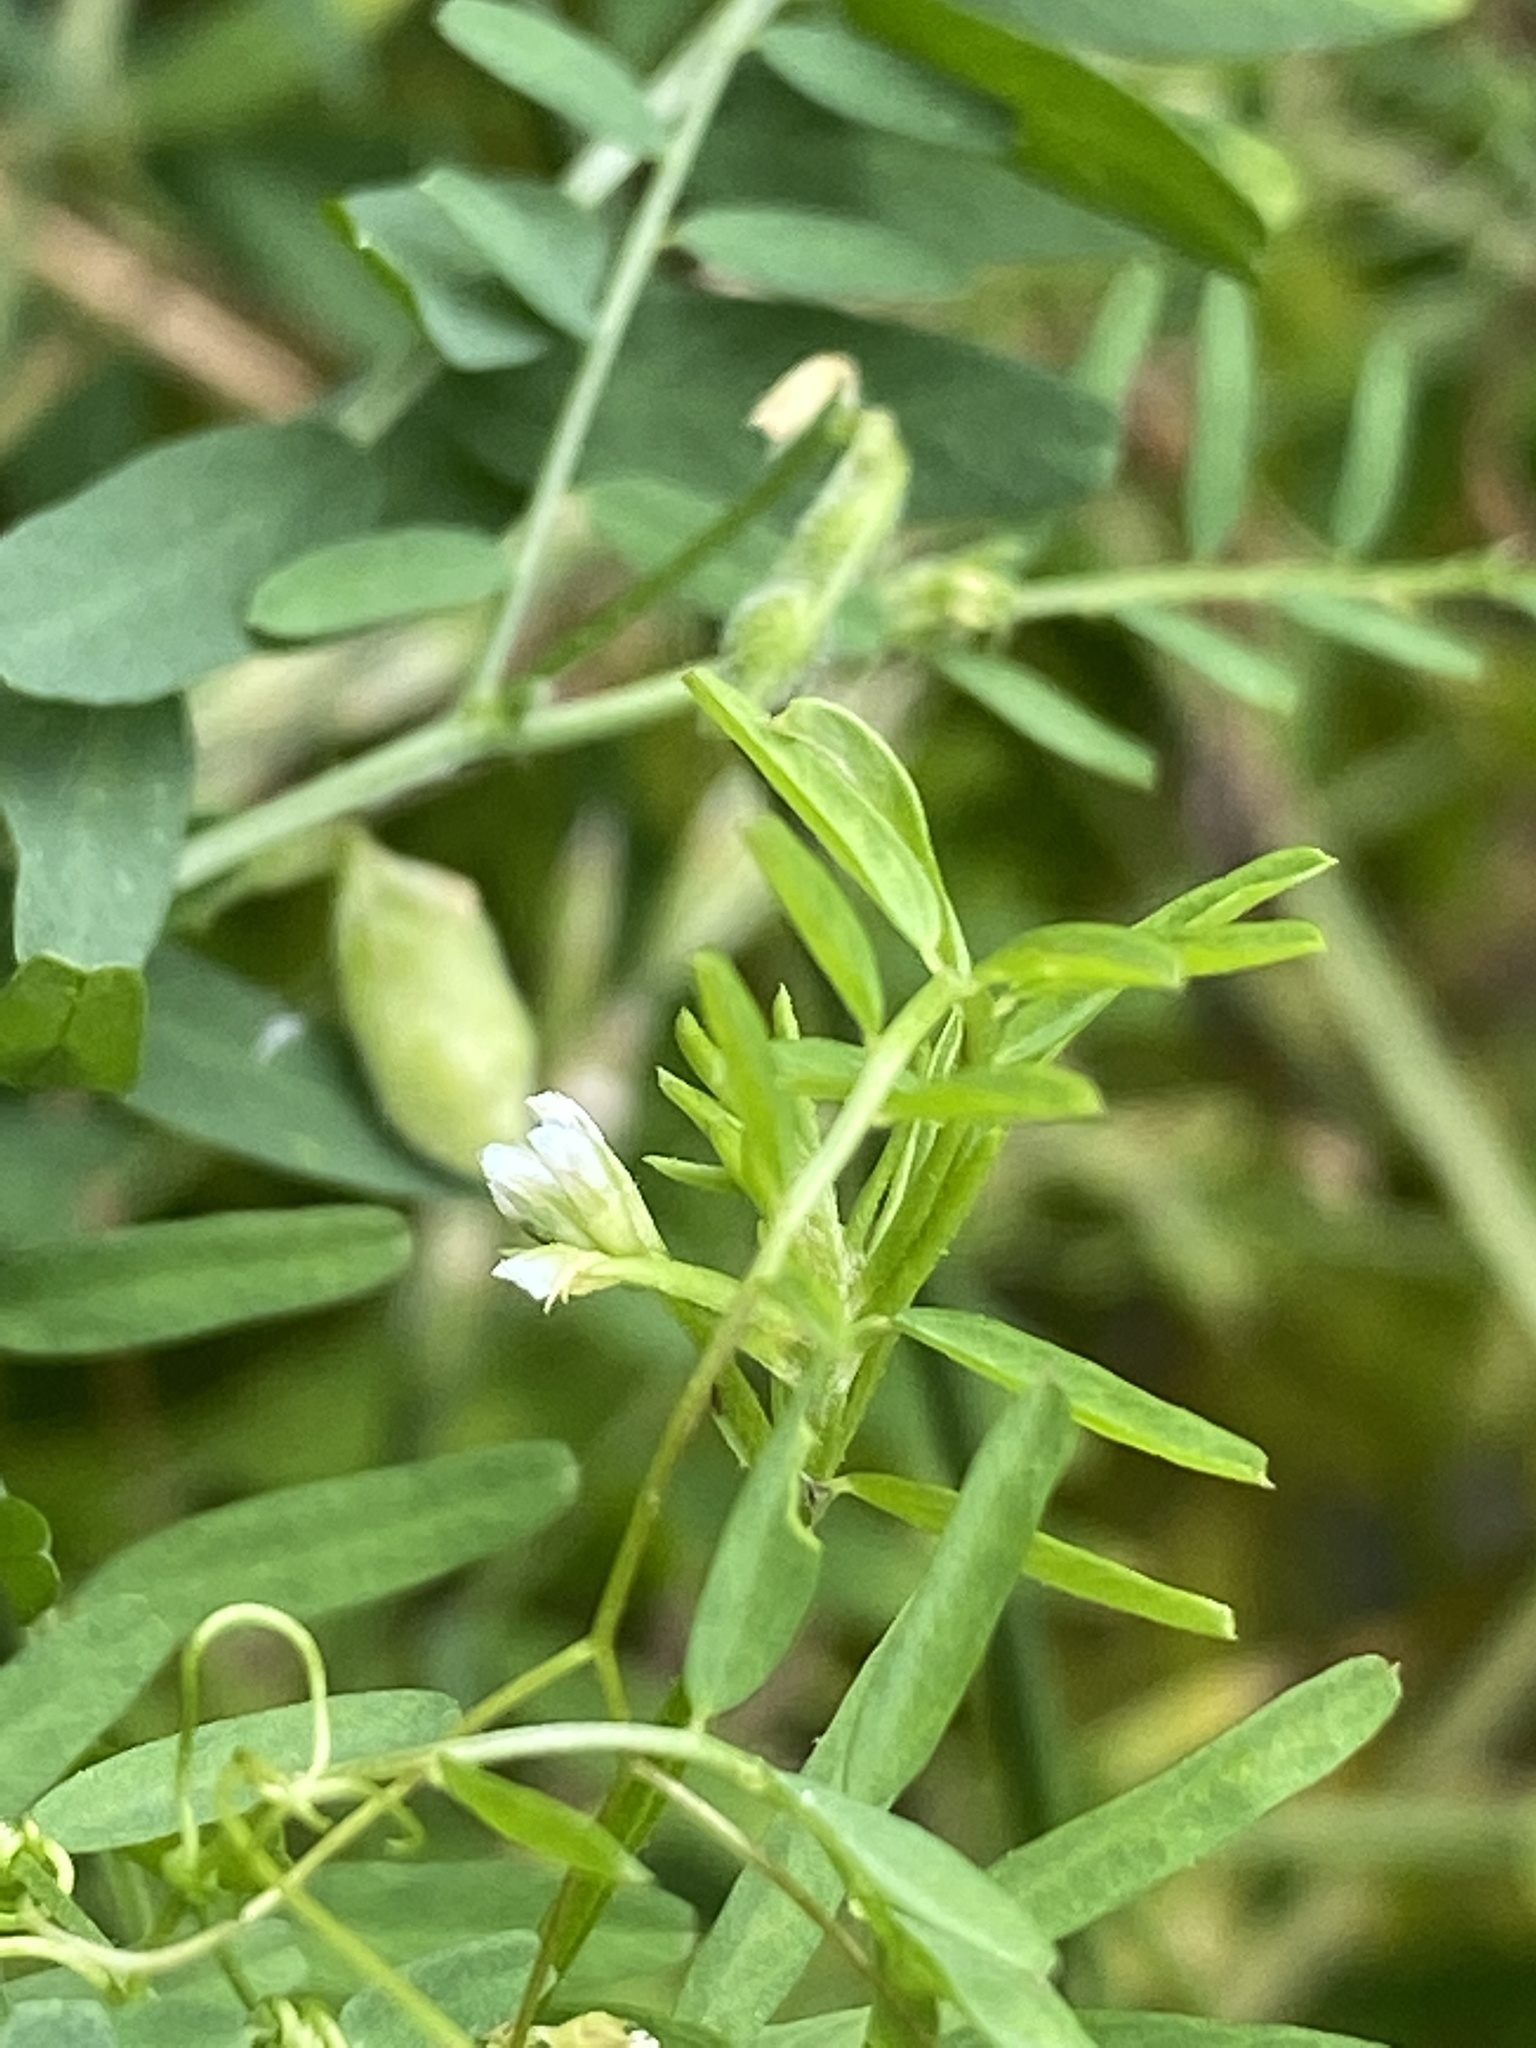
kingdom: Plantae
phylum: Tracheophyta
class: Magnoliopsida
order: Fabales
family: Fabaceae
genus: Vicia
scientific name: Vicia hirsuta
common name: Tiny vetch
